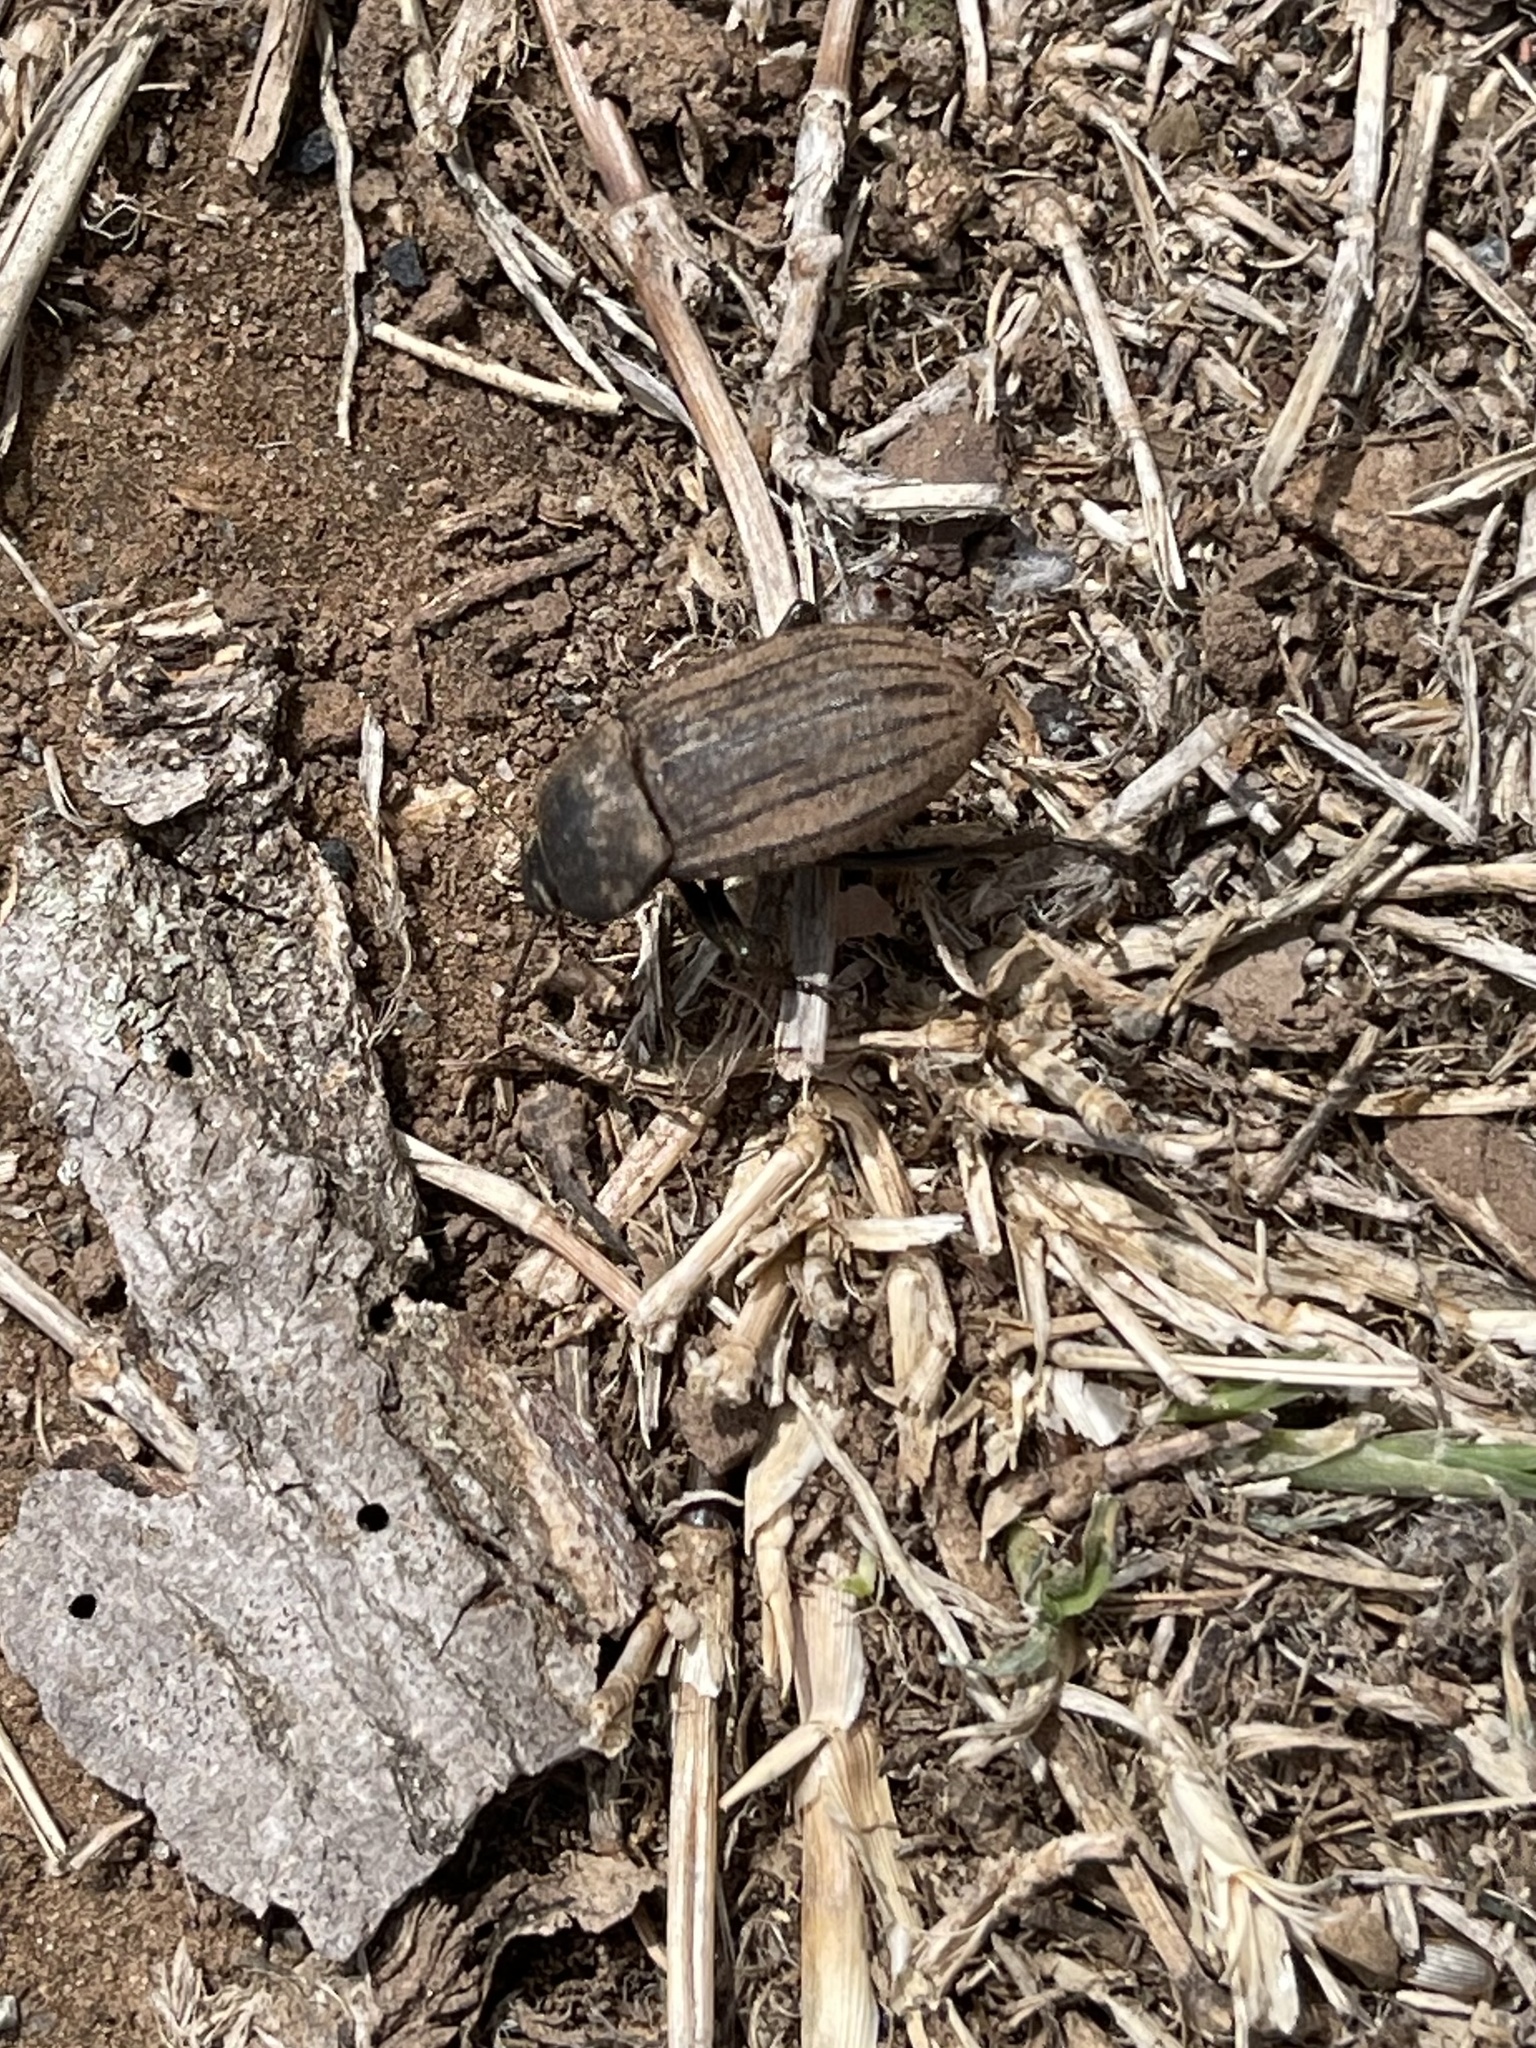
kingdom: Animalia
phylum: Arthropoda
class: Insecta
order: Coleoptera
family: Tenebrionidae
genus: Eleodes
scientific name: Eleodes tricostata
